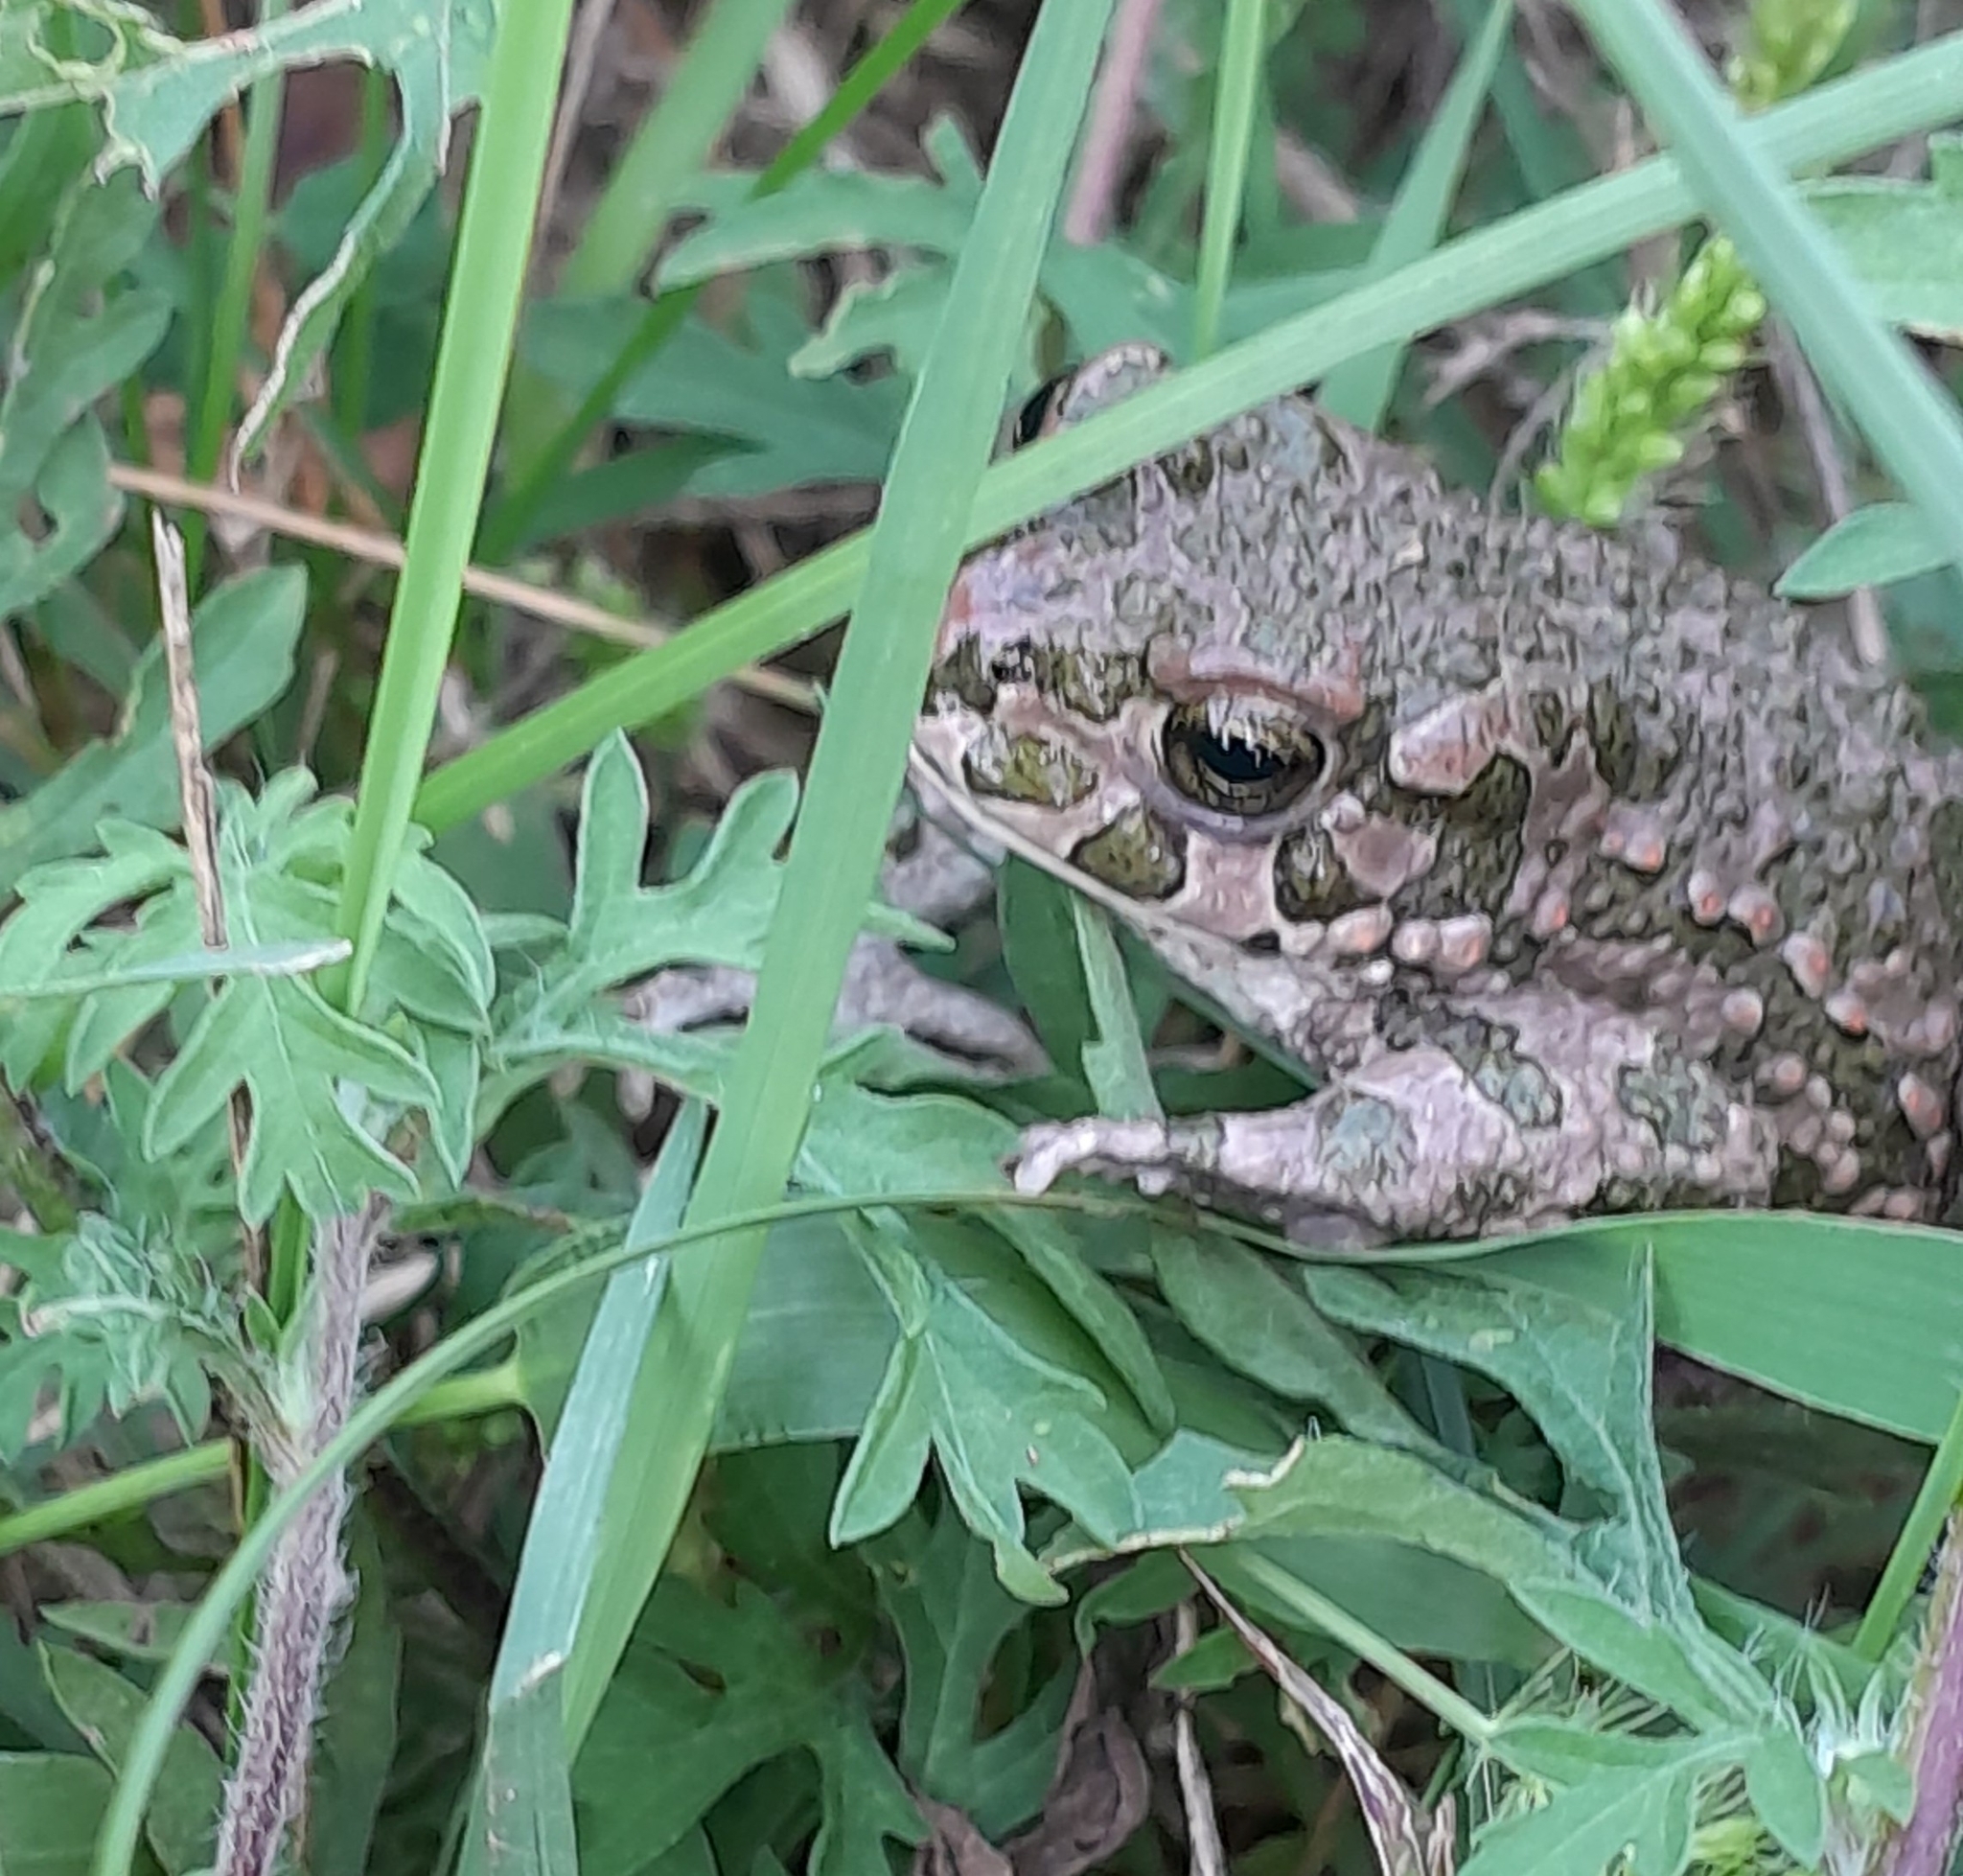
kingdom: Animalia
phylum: Chordata
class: Amphibia
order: Anura
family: Bufonidae
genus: Bufotes
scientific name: Bufotes viridis
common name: European green toad
